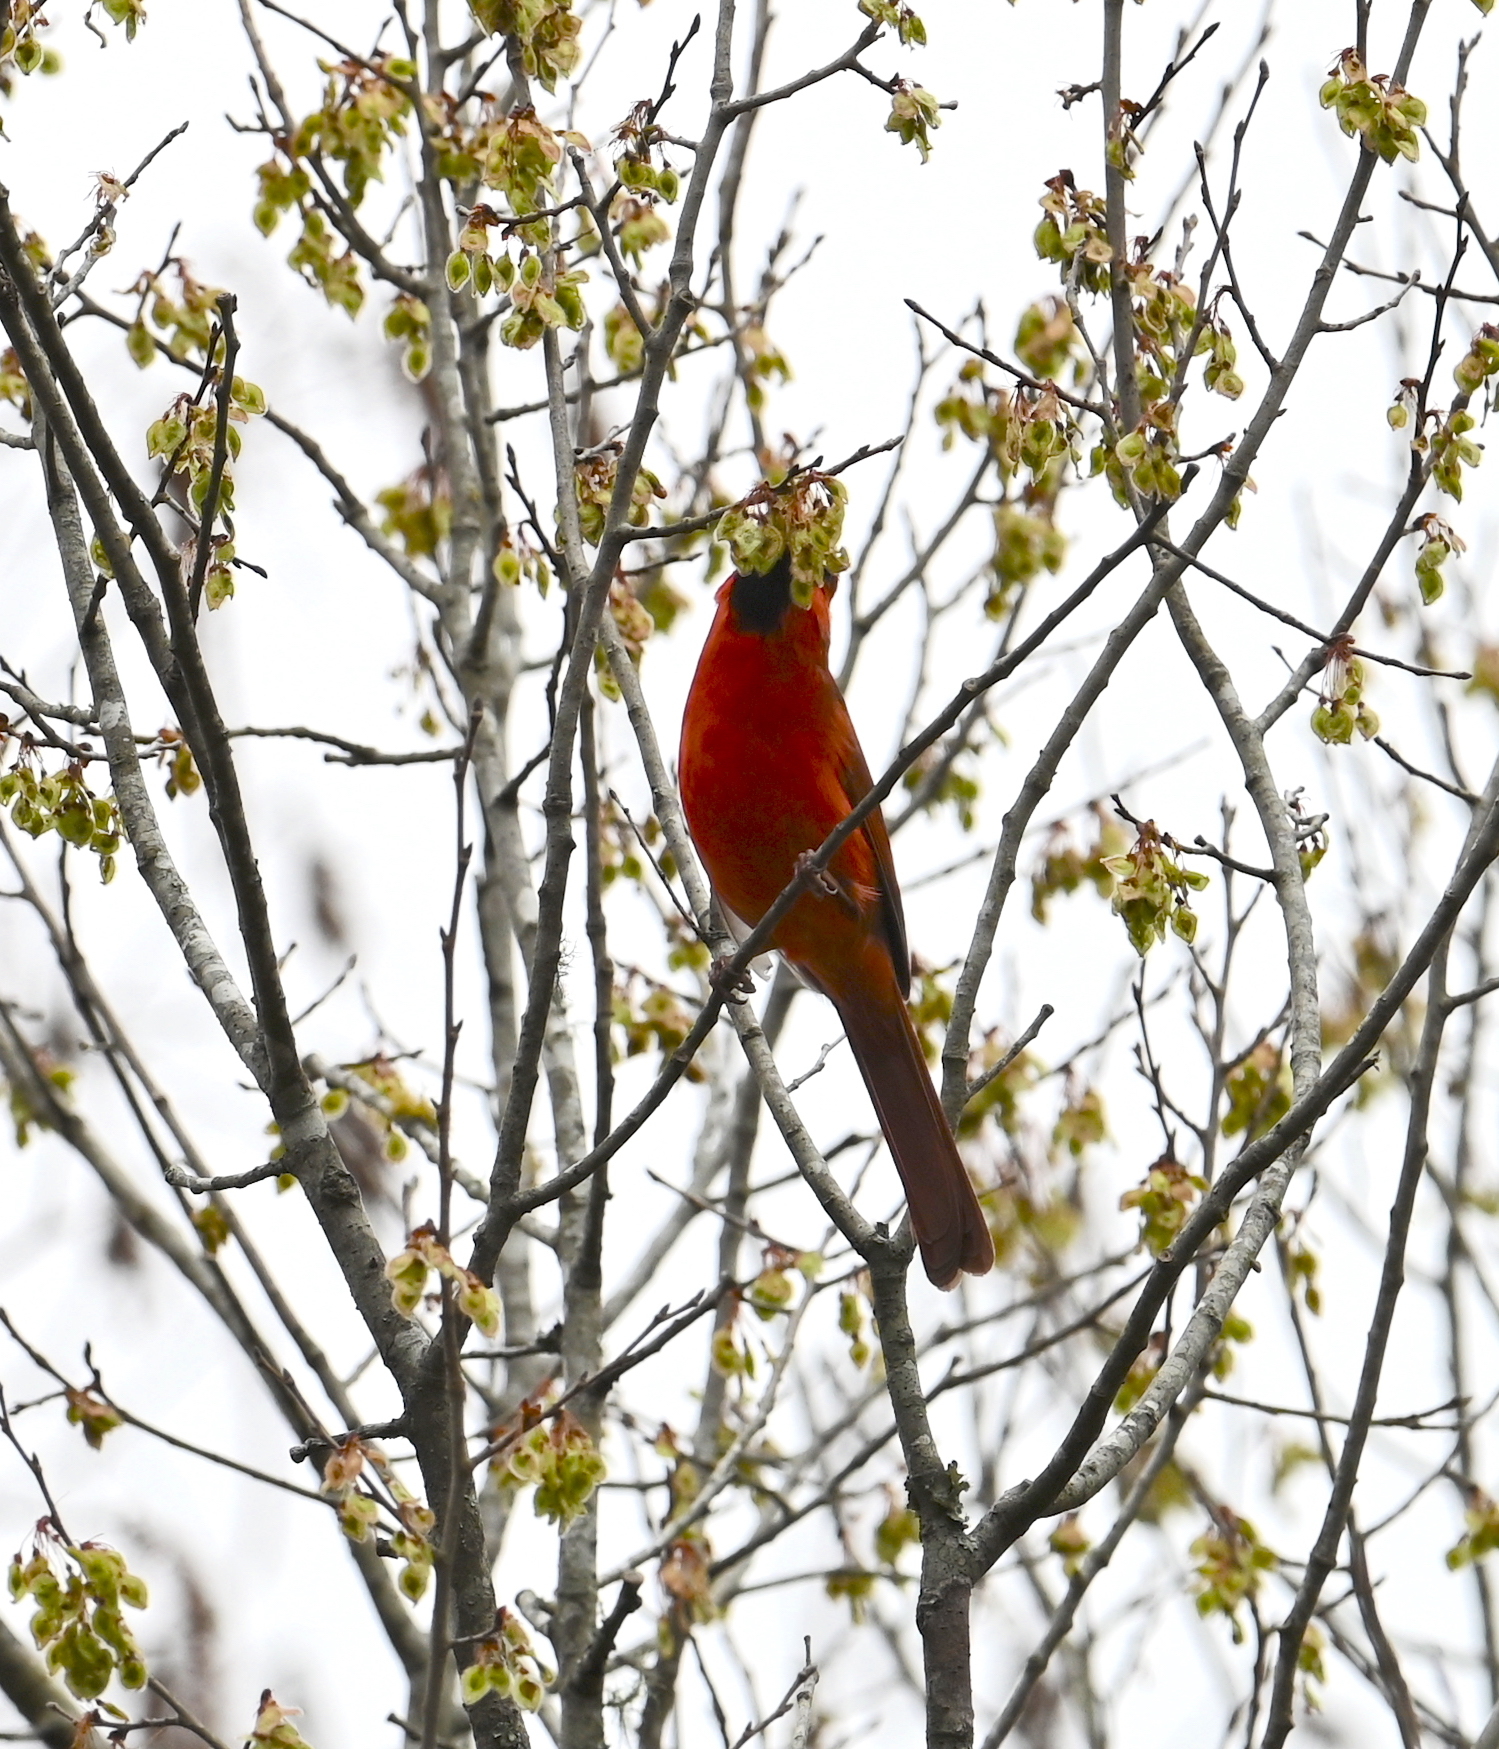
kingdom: Animalia
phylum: Chordata
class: Aves
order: Passeriformes
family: Cardinalidae
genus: Cardinalis
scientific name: Cardinalis cardinalis
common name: Northern cardinal
